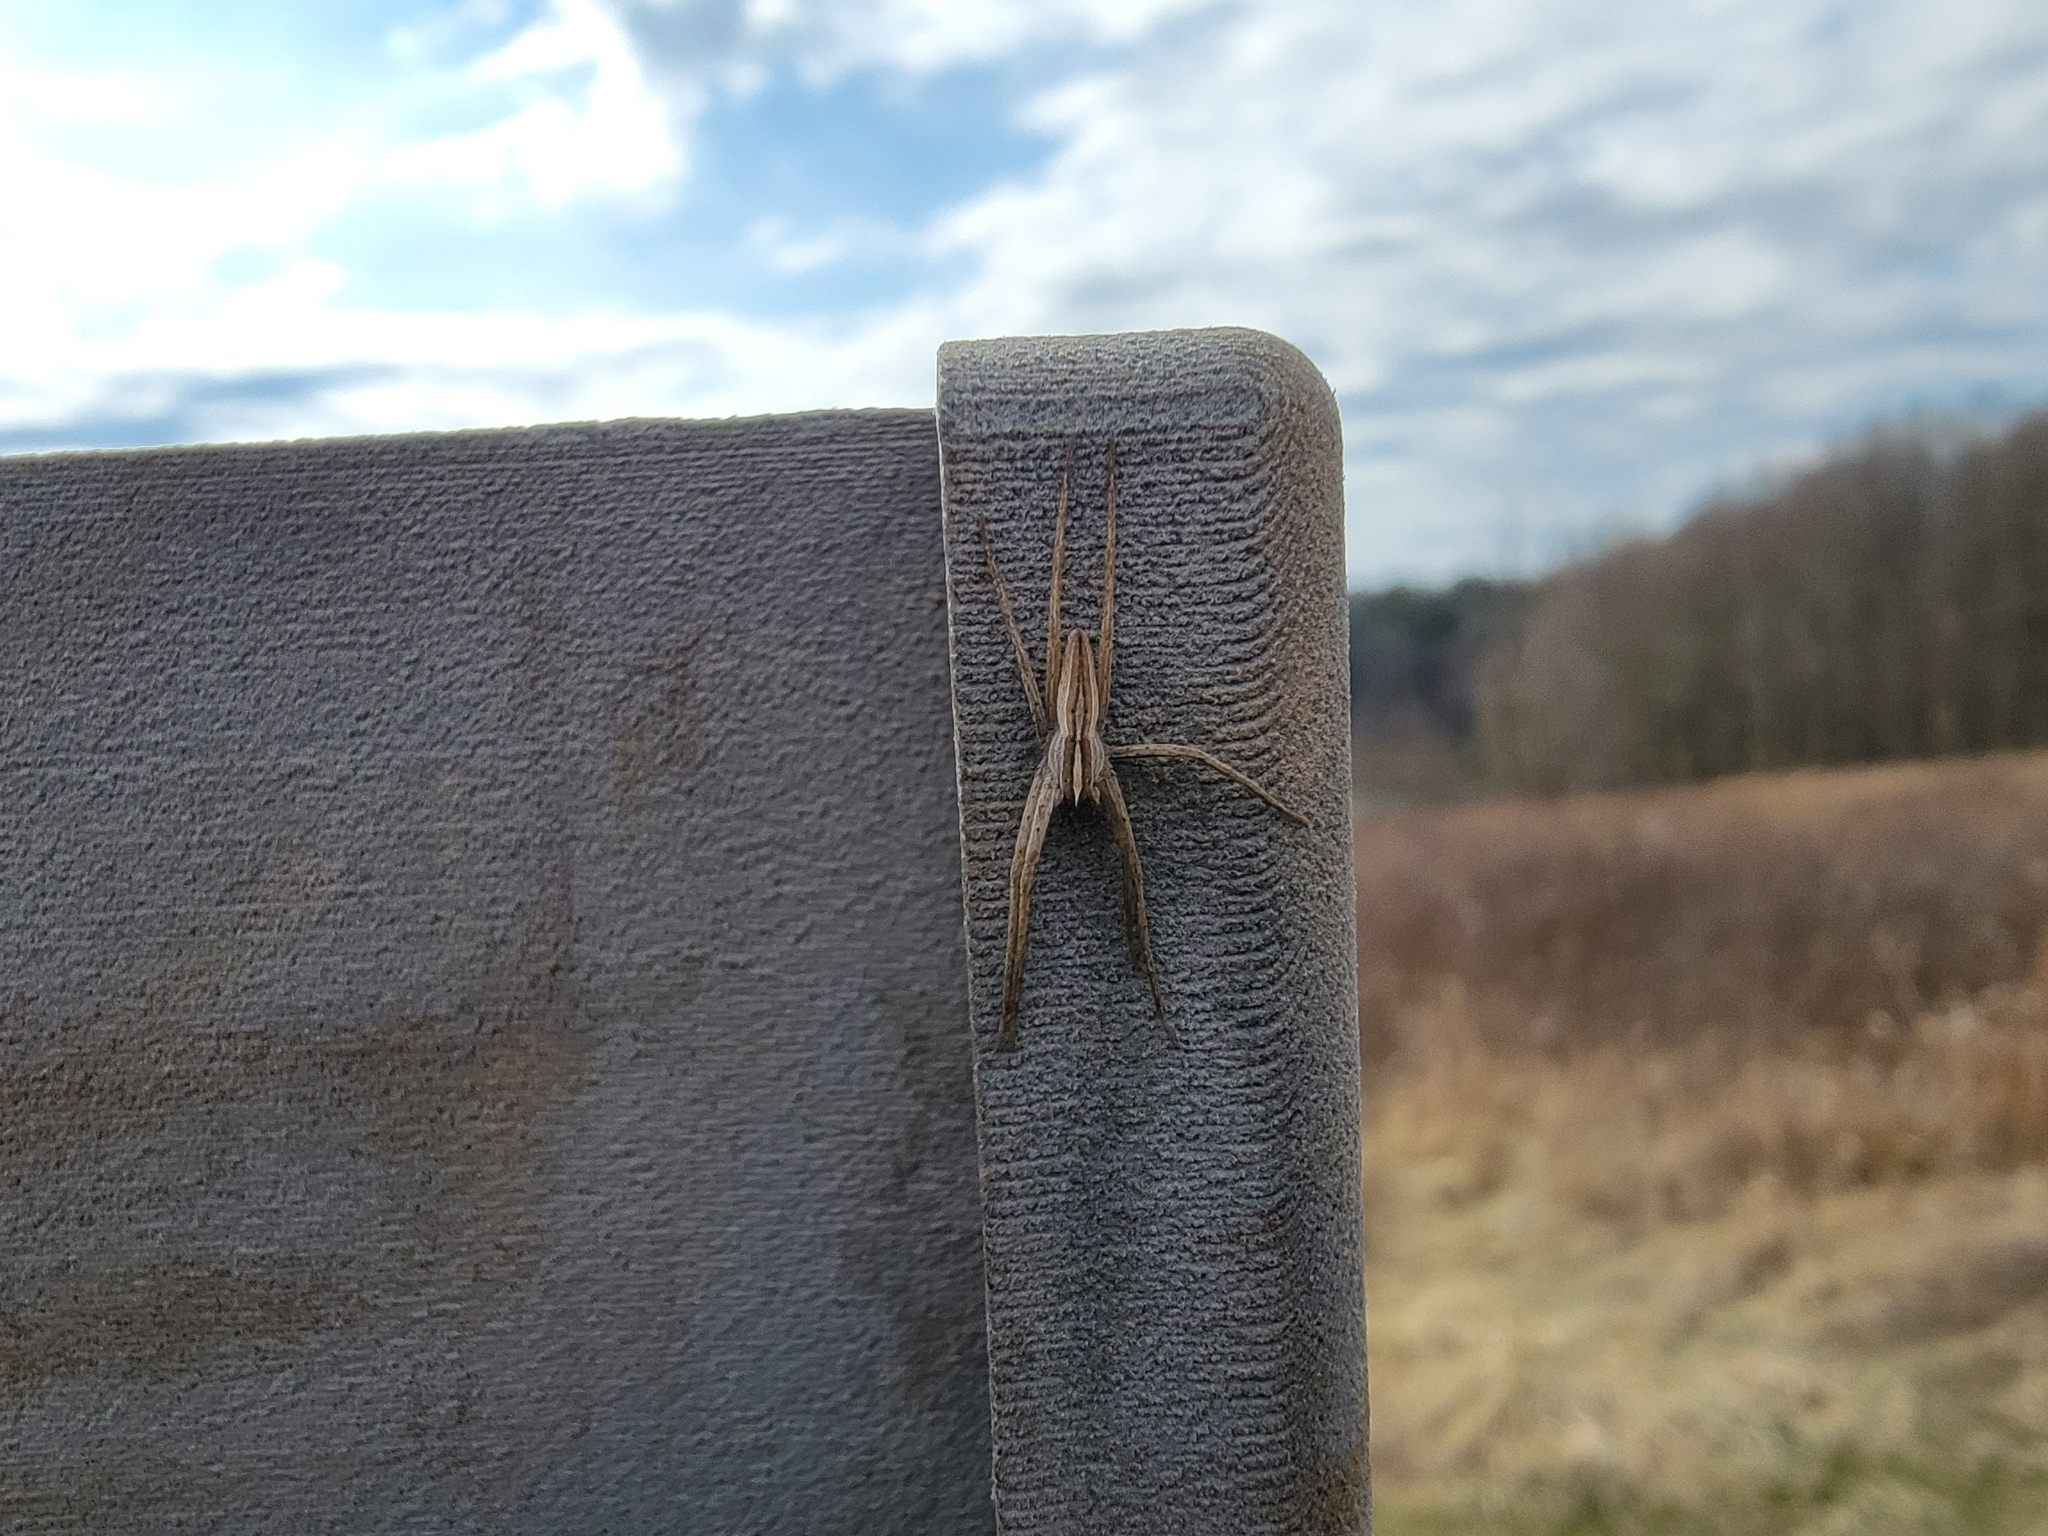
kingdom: Animalia
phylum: Arthropoda
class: Arachnida
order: Araneae
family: Pisauridae
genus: Pisaurina
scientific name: Pisaurina dubia
